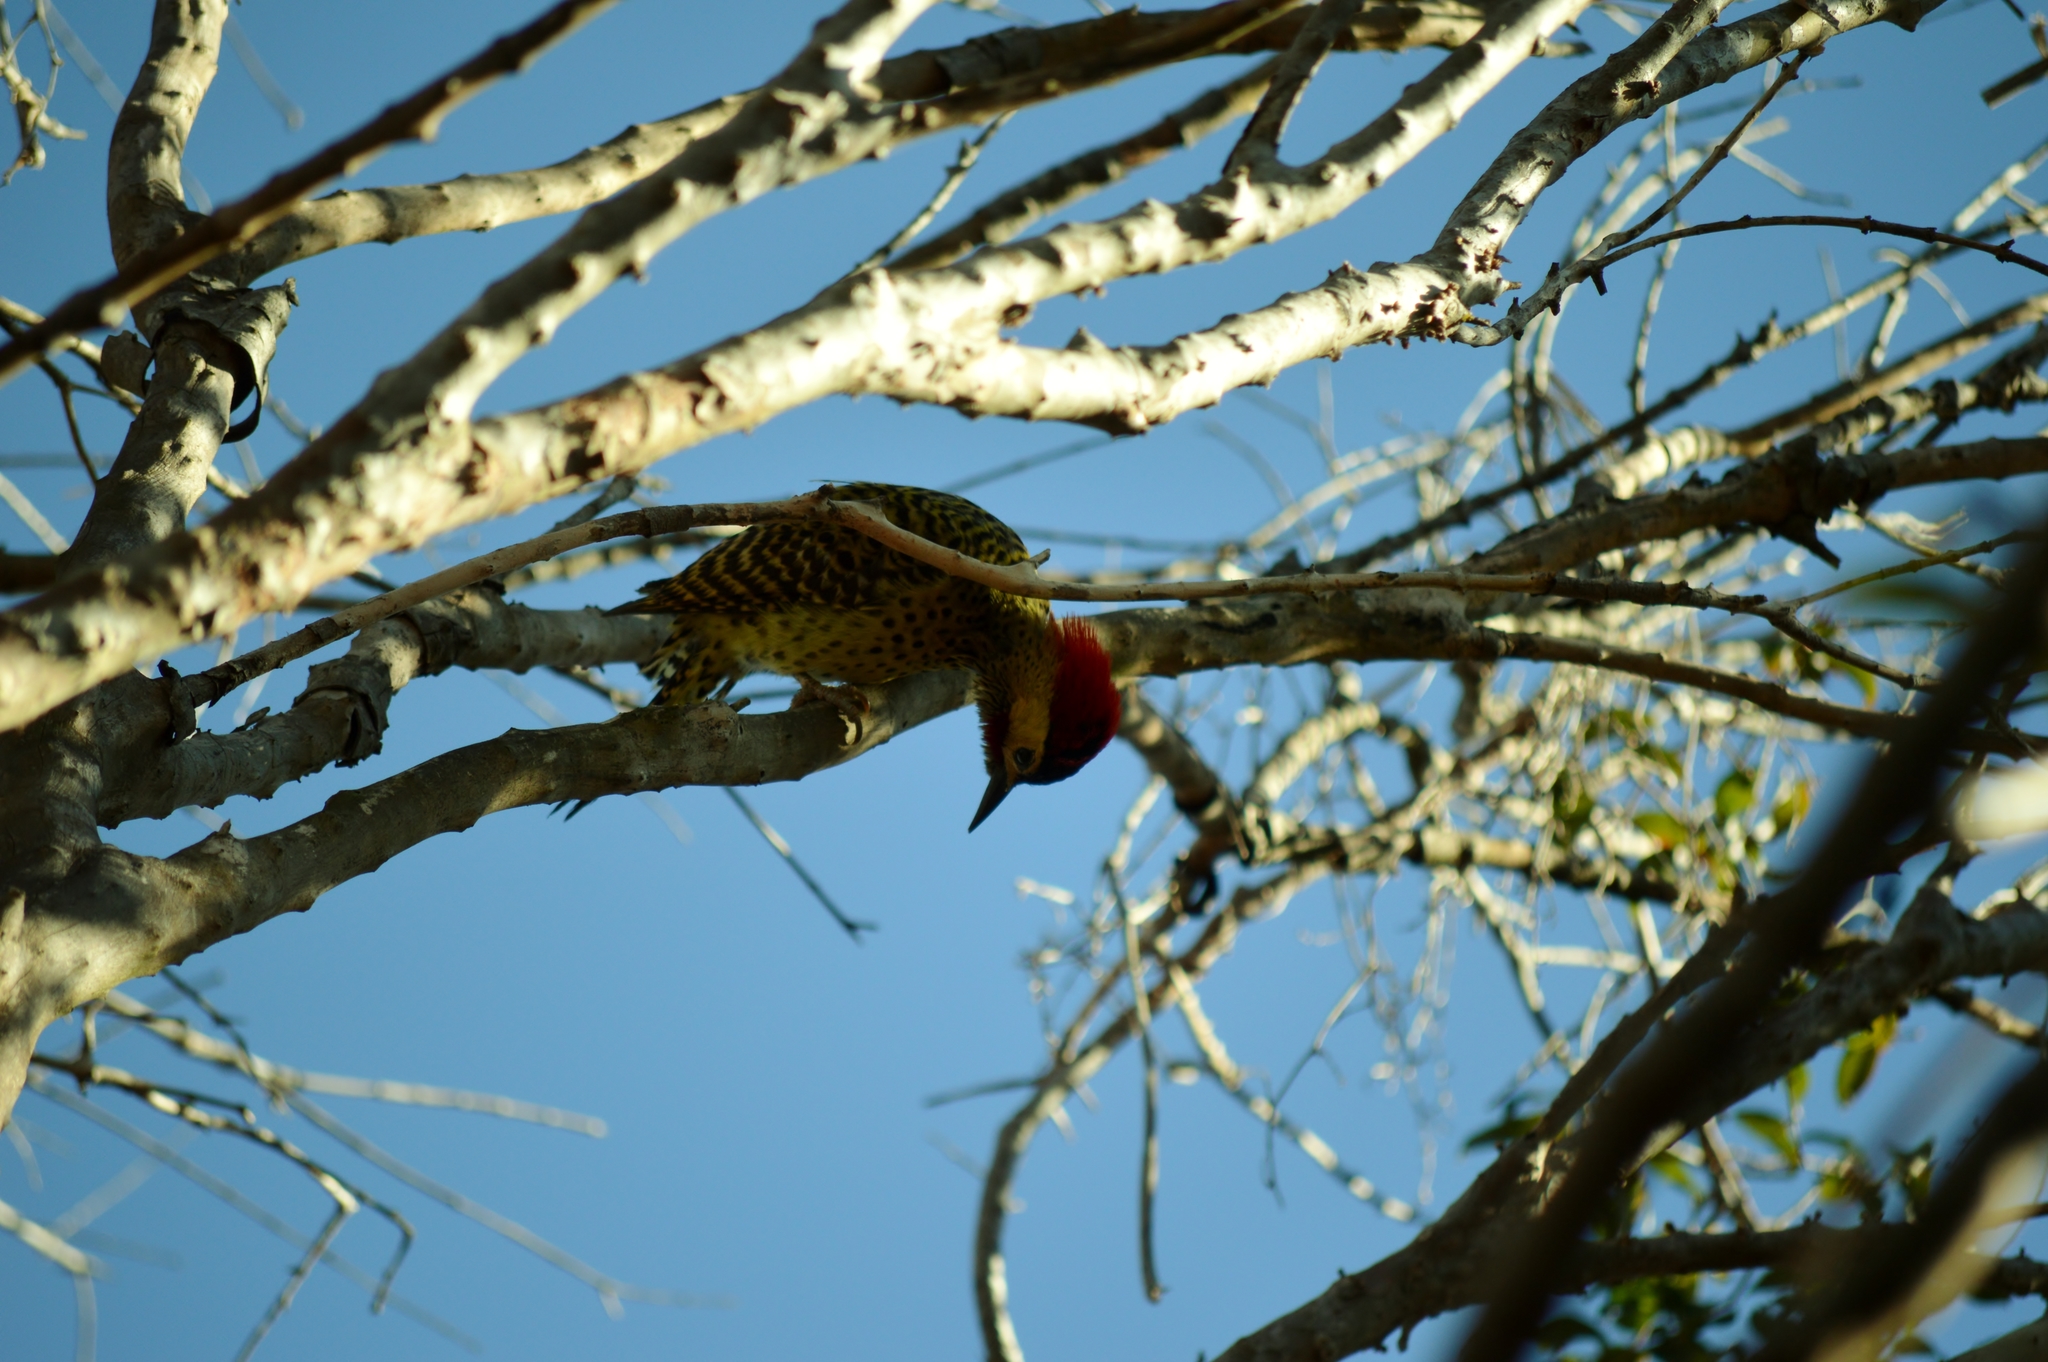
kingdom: Animalia
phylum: Chordata
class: Aves
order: Piciformes
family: Picidae
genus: Colaptes
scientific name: Colaptes melanochloros
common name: Green-barred woodpecker
